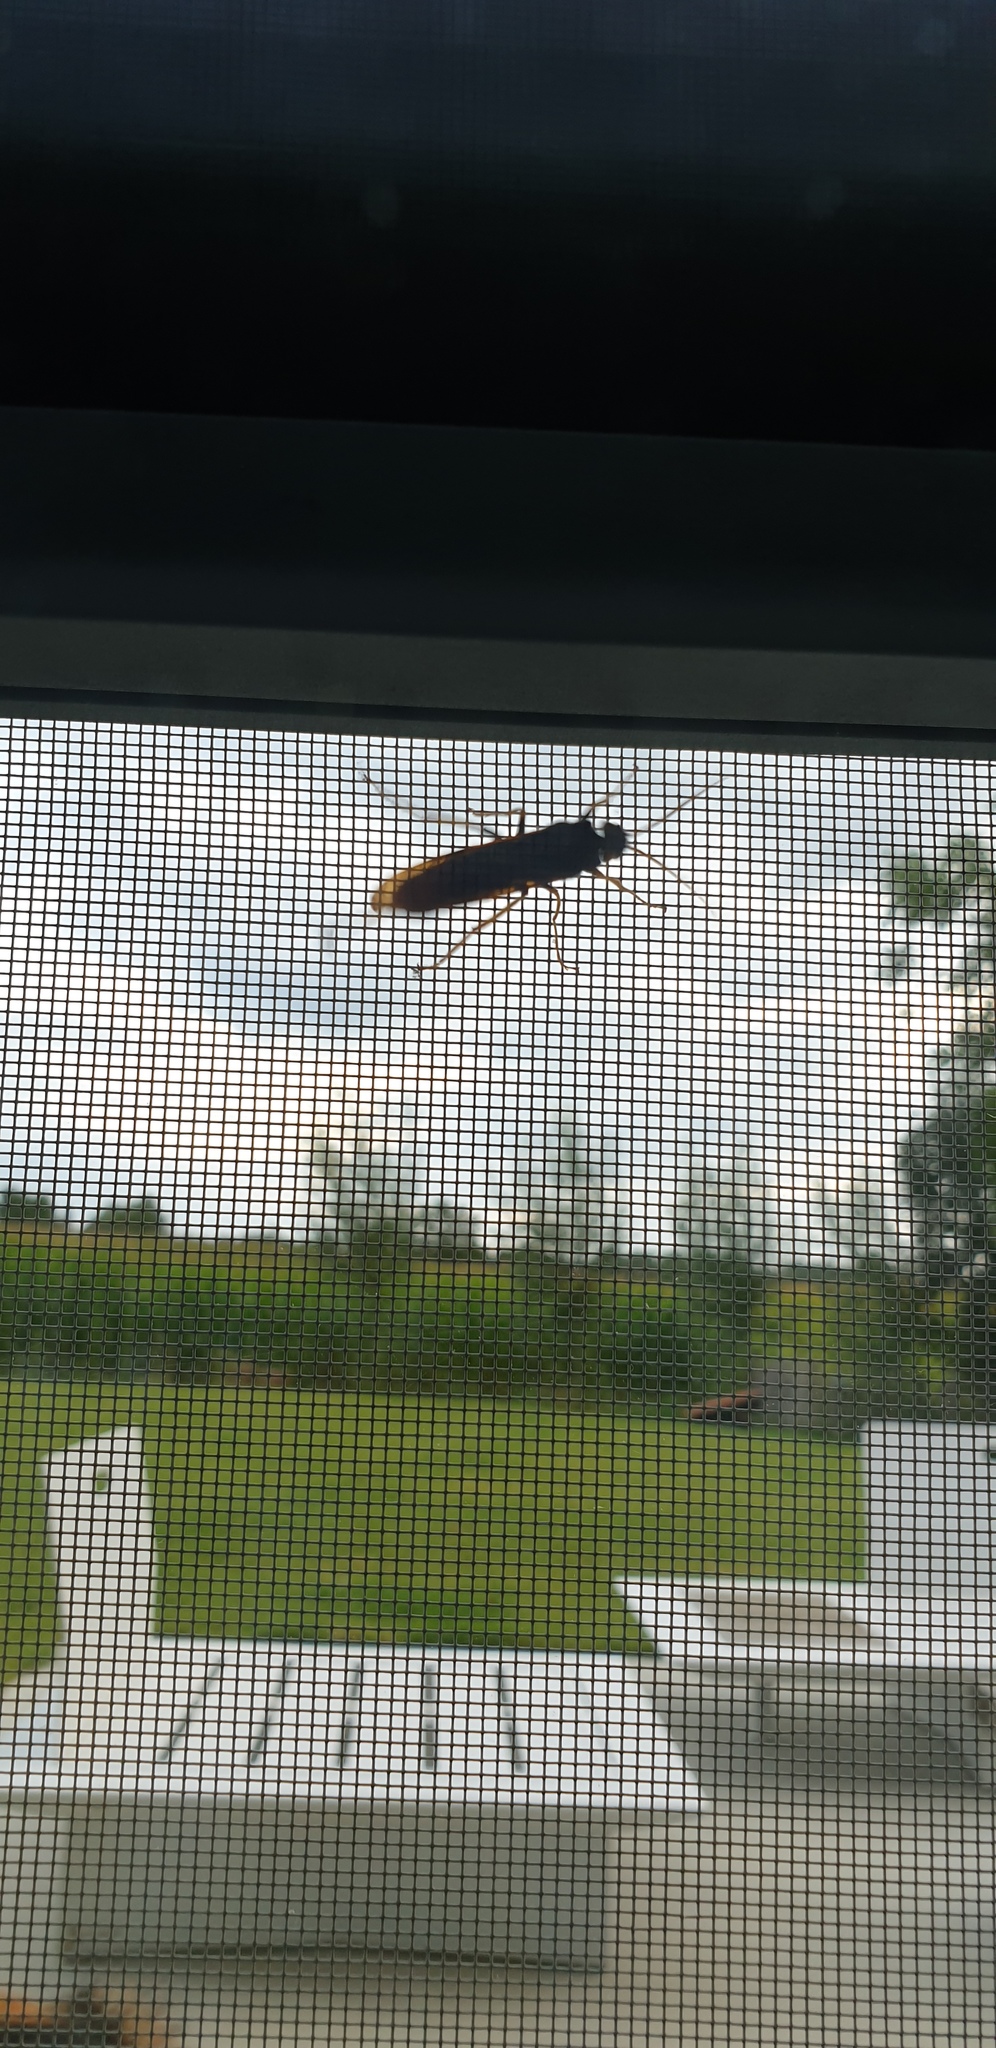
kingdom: Animalia
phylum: Arthropoda
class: Insecta
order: Hymenoptera
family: Siricidae
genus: Urocerus
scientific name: Urocerus gigas
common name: Giant woodwasp
